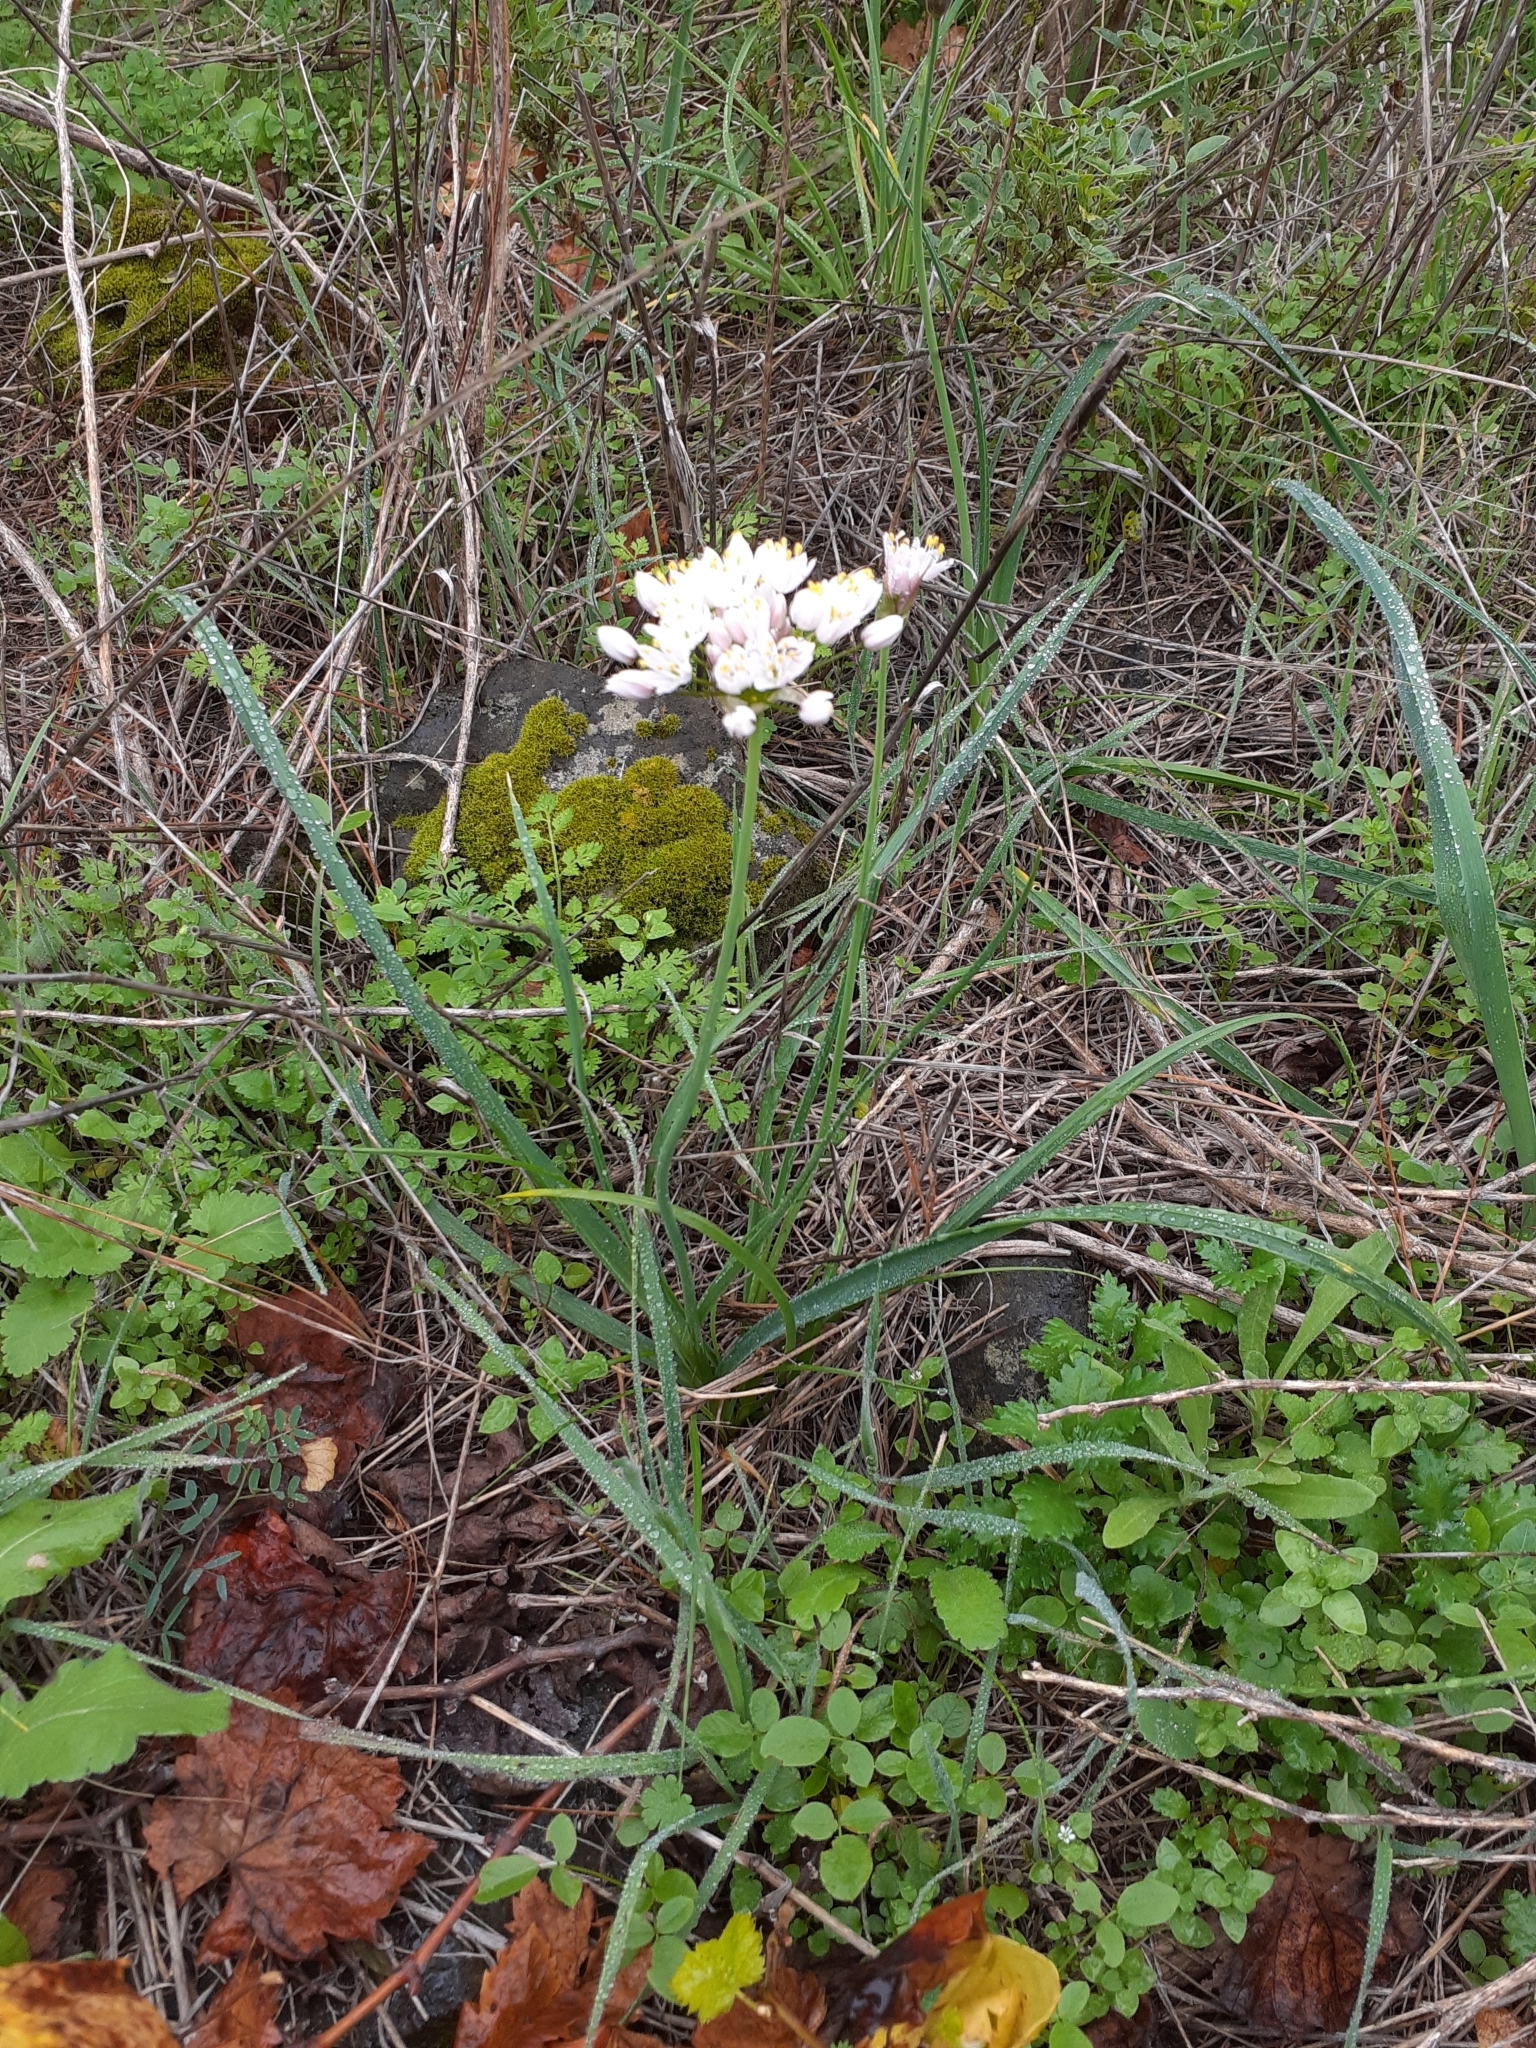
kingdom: Plantae
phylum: Tracheophyta
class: Liliopsida
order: Asparagales
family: Amaryllidaceae
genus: Allium
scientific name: Allium canariense
